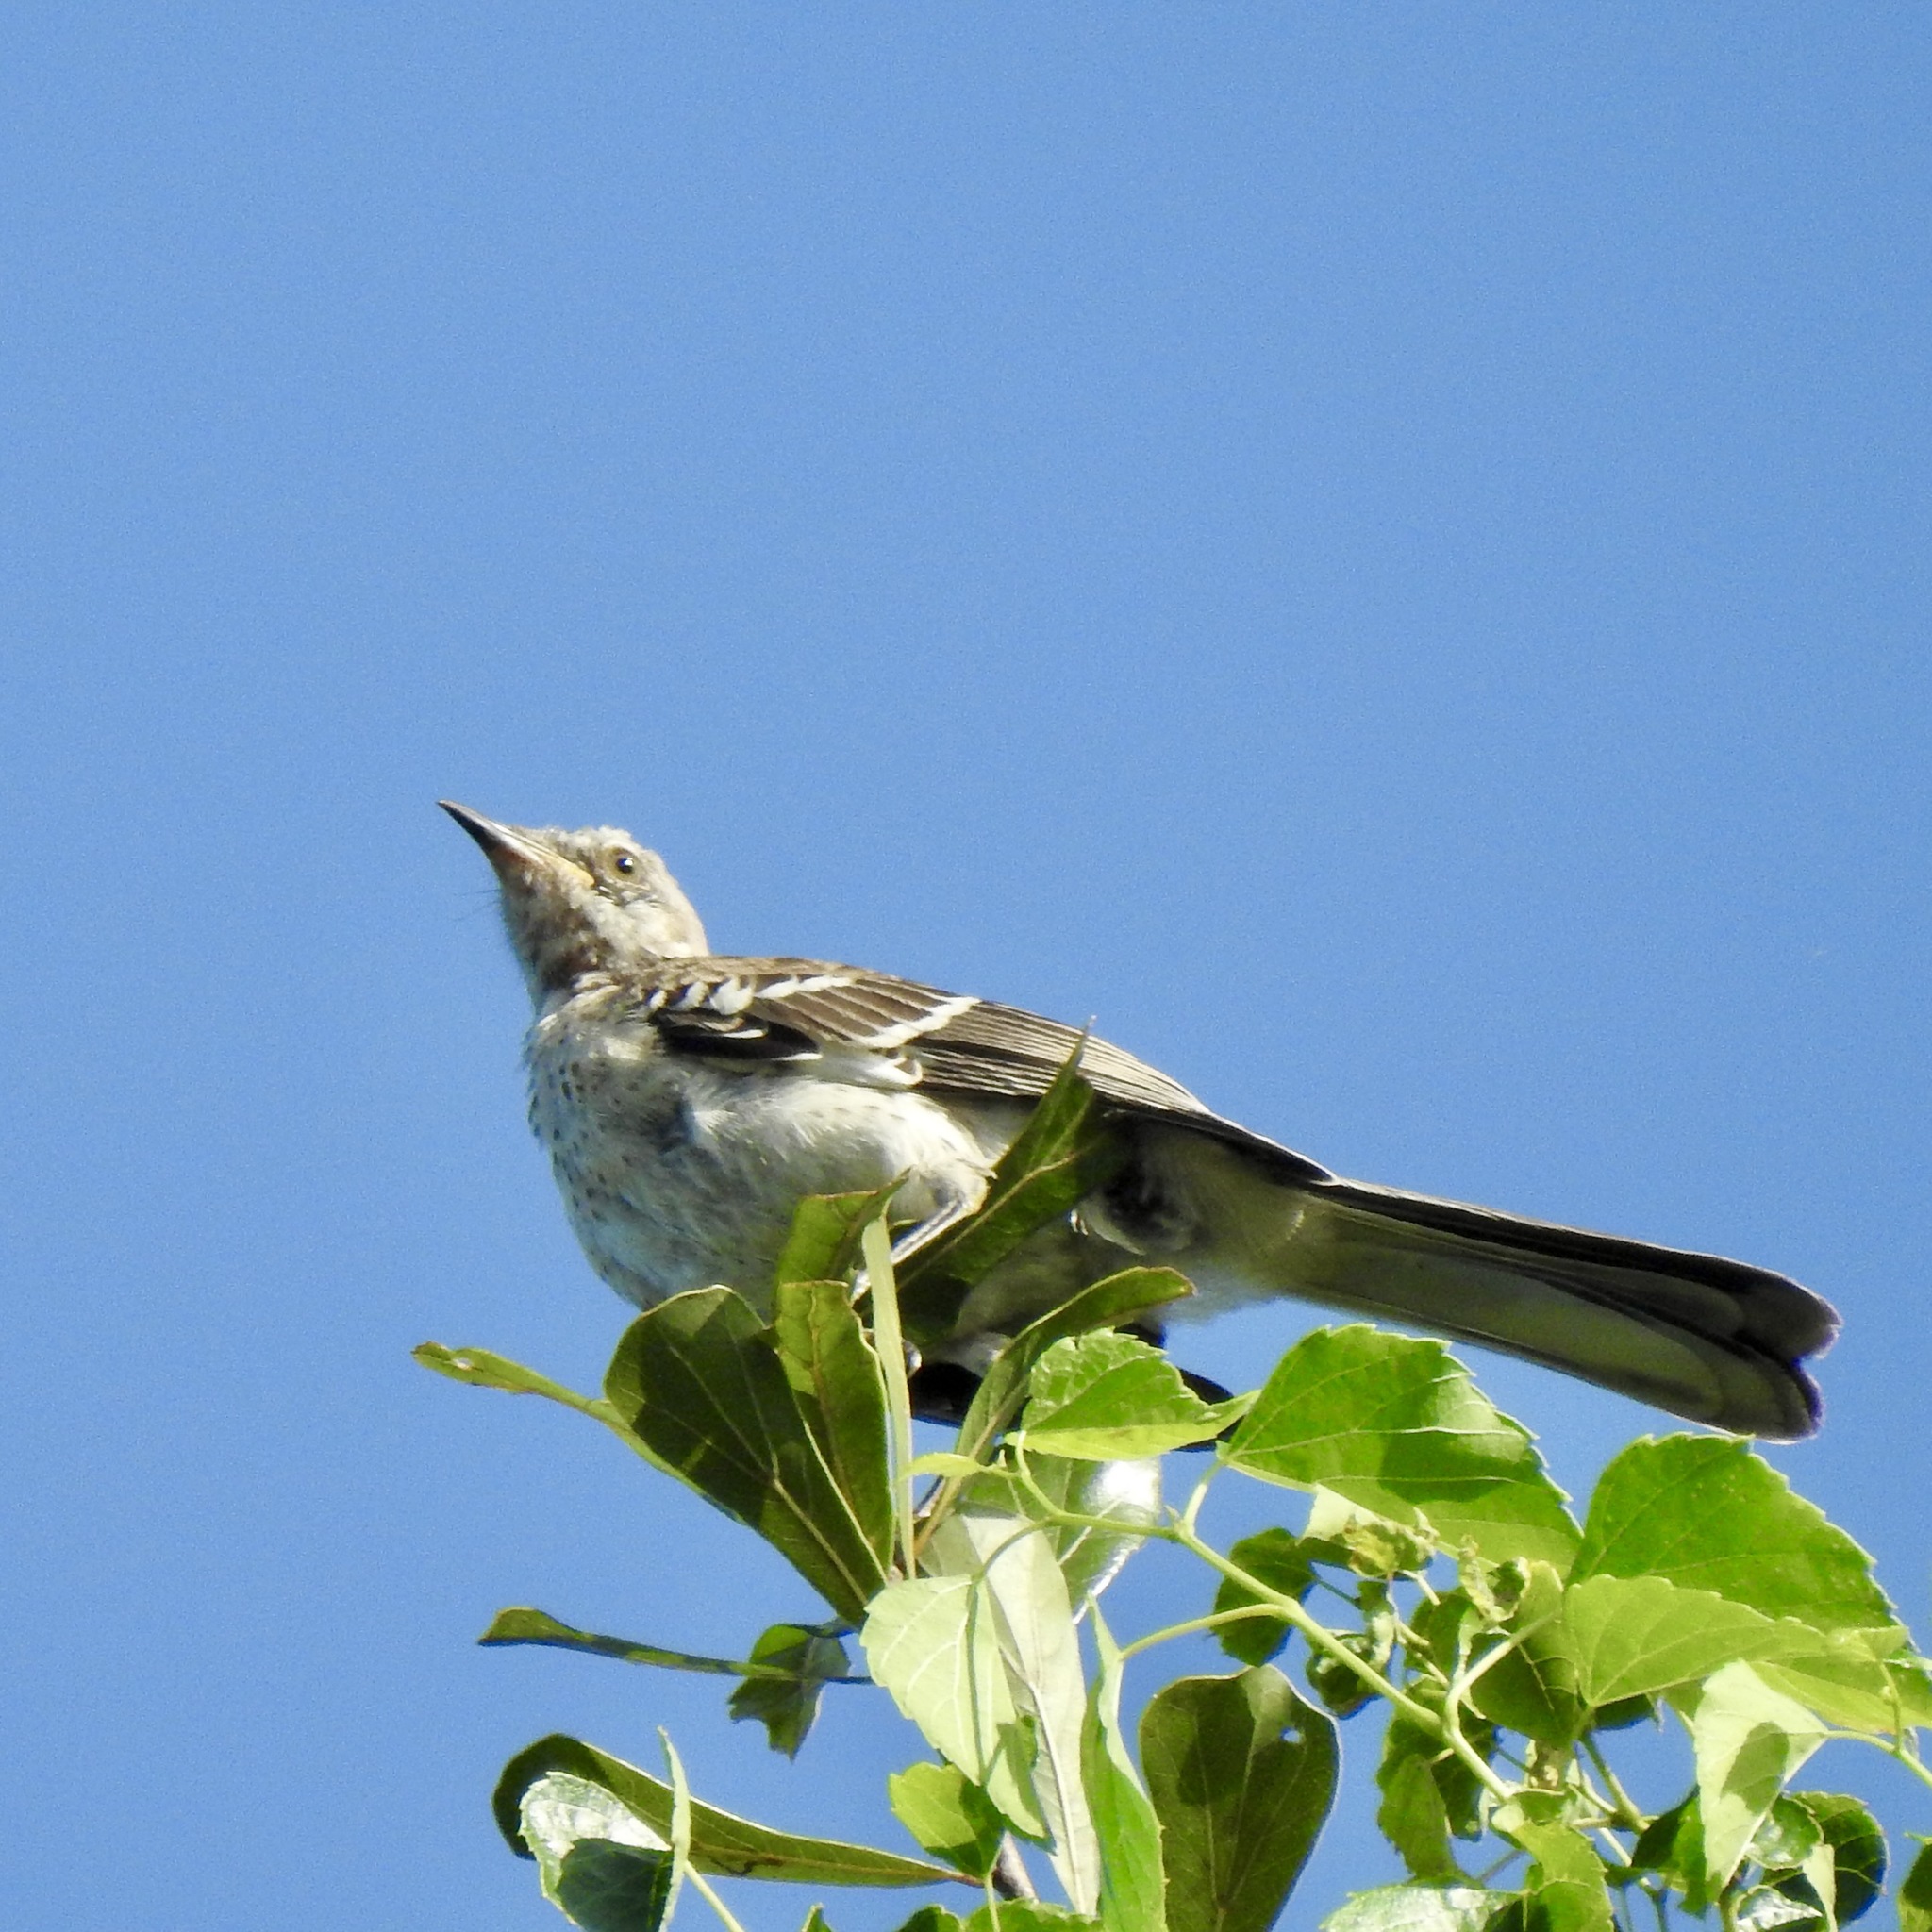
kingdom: Animalia
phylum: Chordata
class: Aves
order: Passeriformes
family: Mimidae
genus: Mimus
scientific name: Mimus polyglottos
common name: Northern mockingbird
